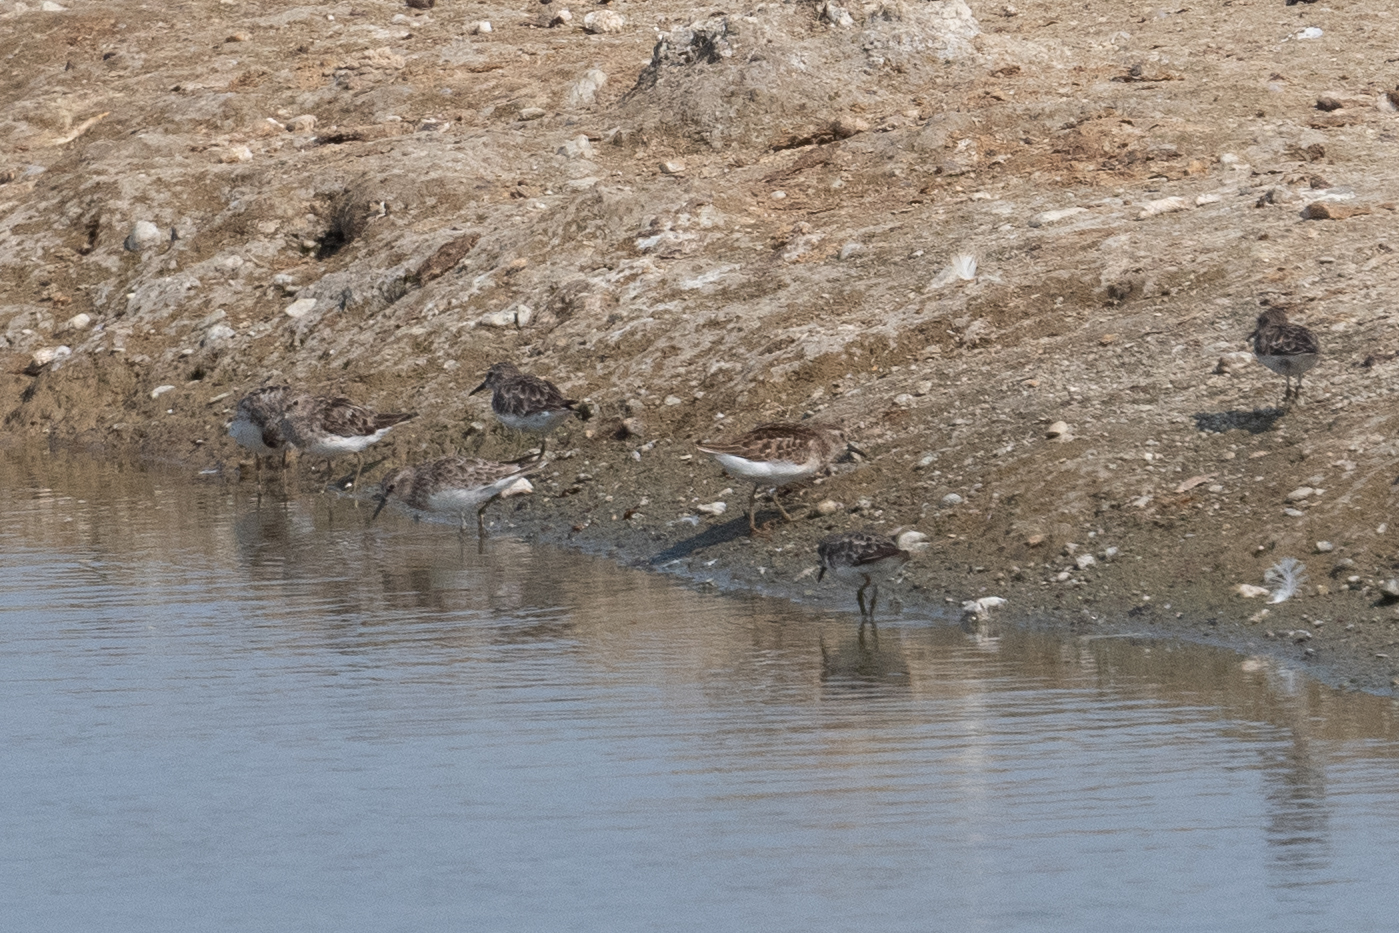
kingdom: Animalia
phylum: Chordata
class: Aves
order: Charadriiformes
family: Scolopacidae
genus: Calidris
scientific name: Calidris minutilla
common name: Least sandpiper
